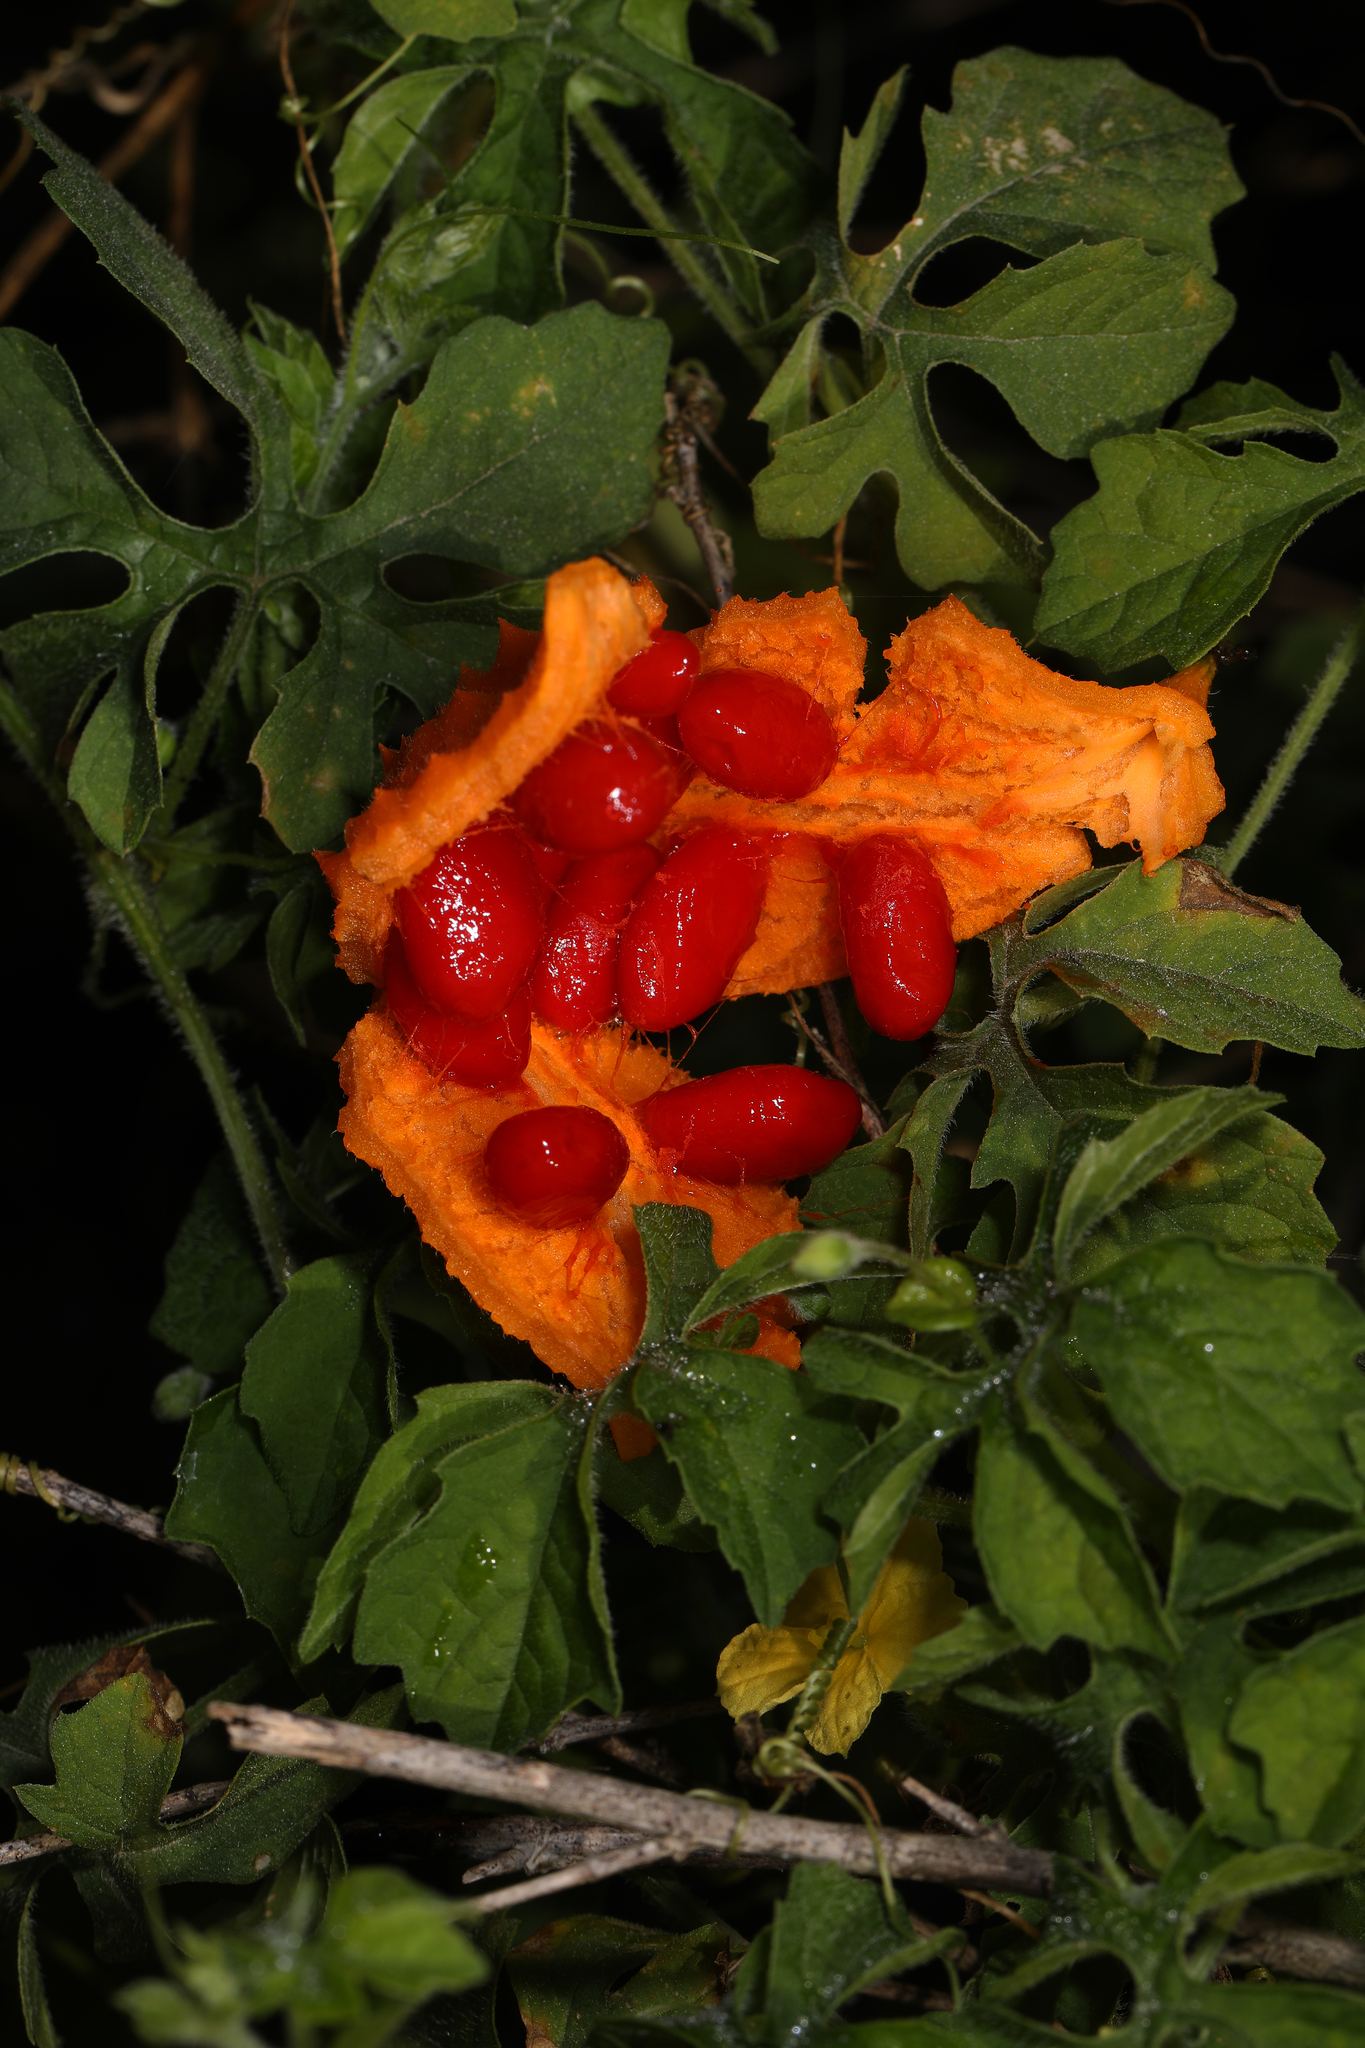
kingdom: Plantae
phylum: Tracheophyta
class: Magnoliopsida
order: Cucurbitales
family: Cucurbitaceae
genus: Momordica
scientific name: Momordica charantia
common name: Balsampear
